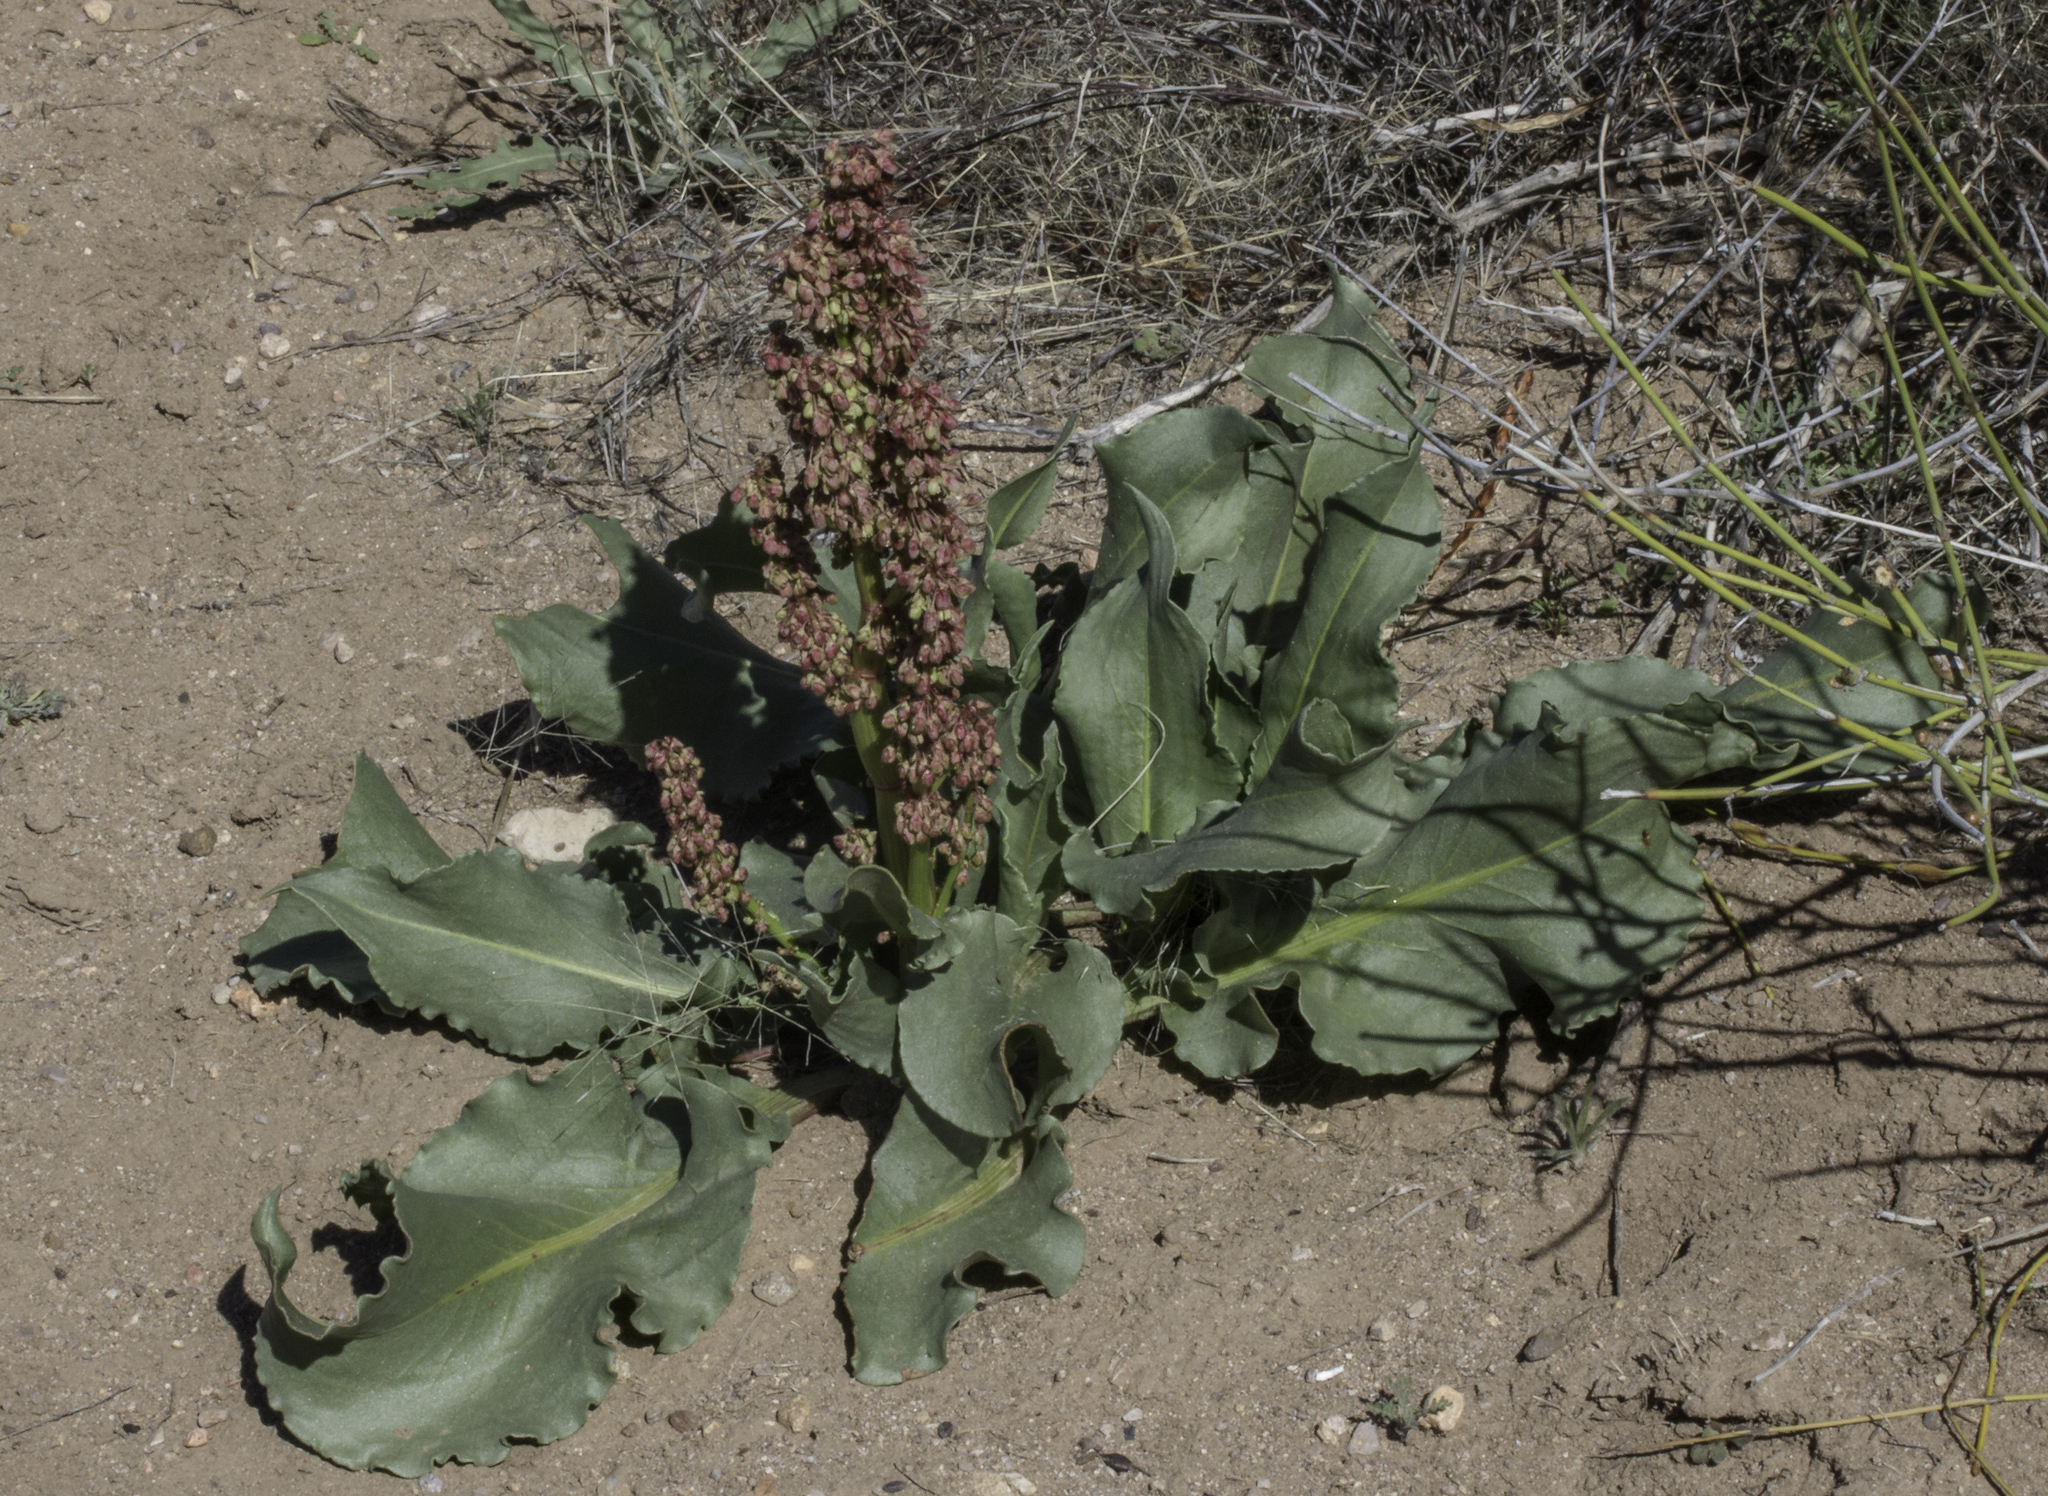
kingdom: Plantae
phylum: Tracheophyta
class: Magnoliopsida
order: Caryophyllales
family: Polygonaceae
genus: Rumex
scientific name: Rumex hymenosepalus
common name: Ganagra
